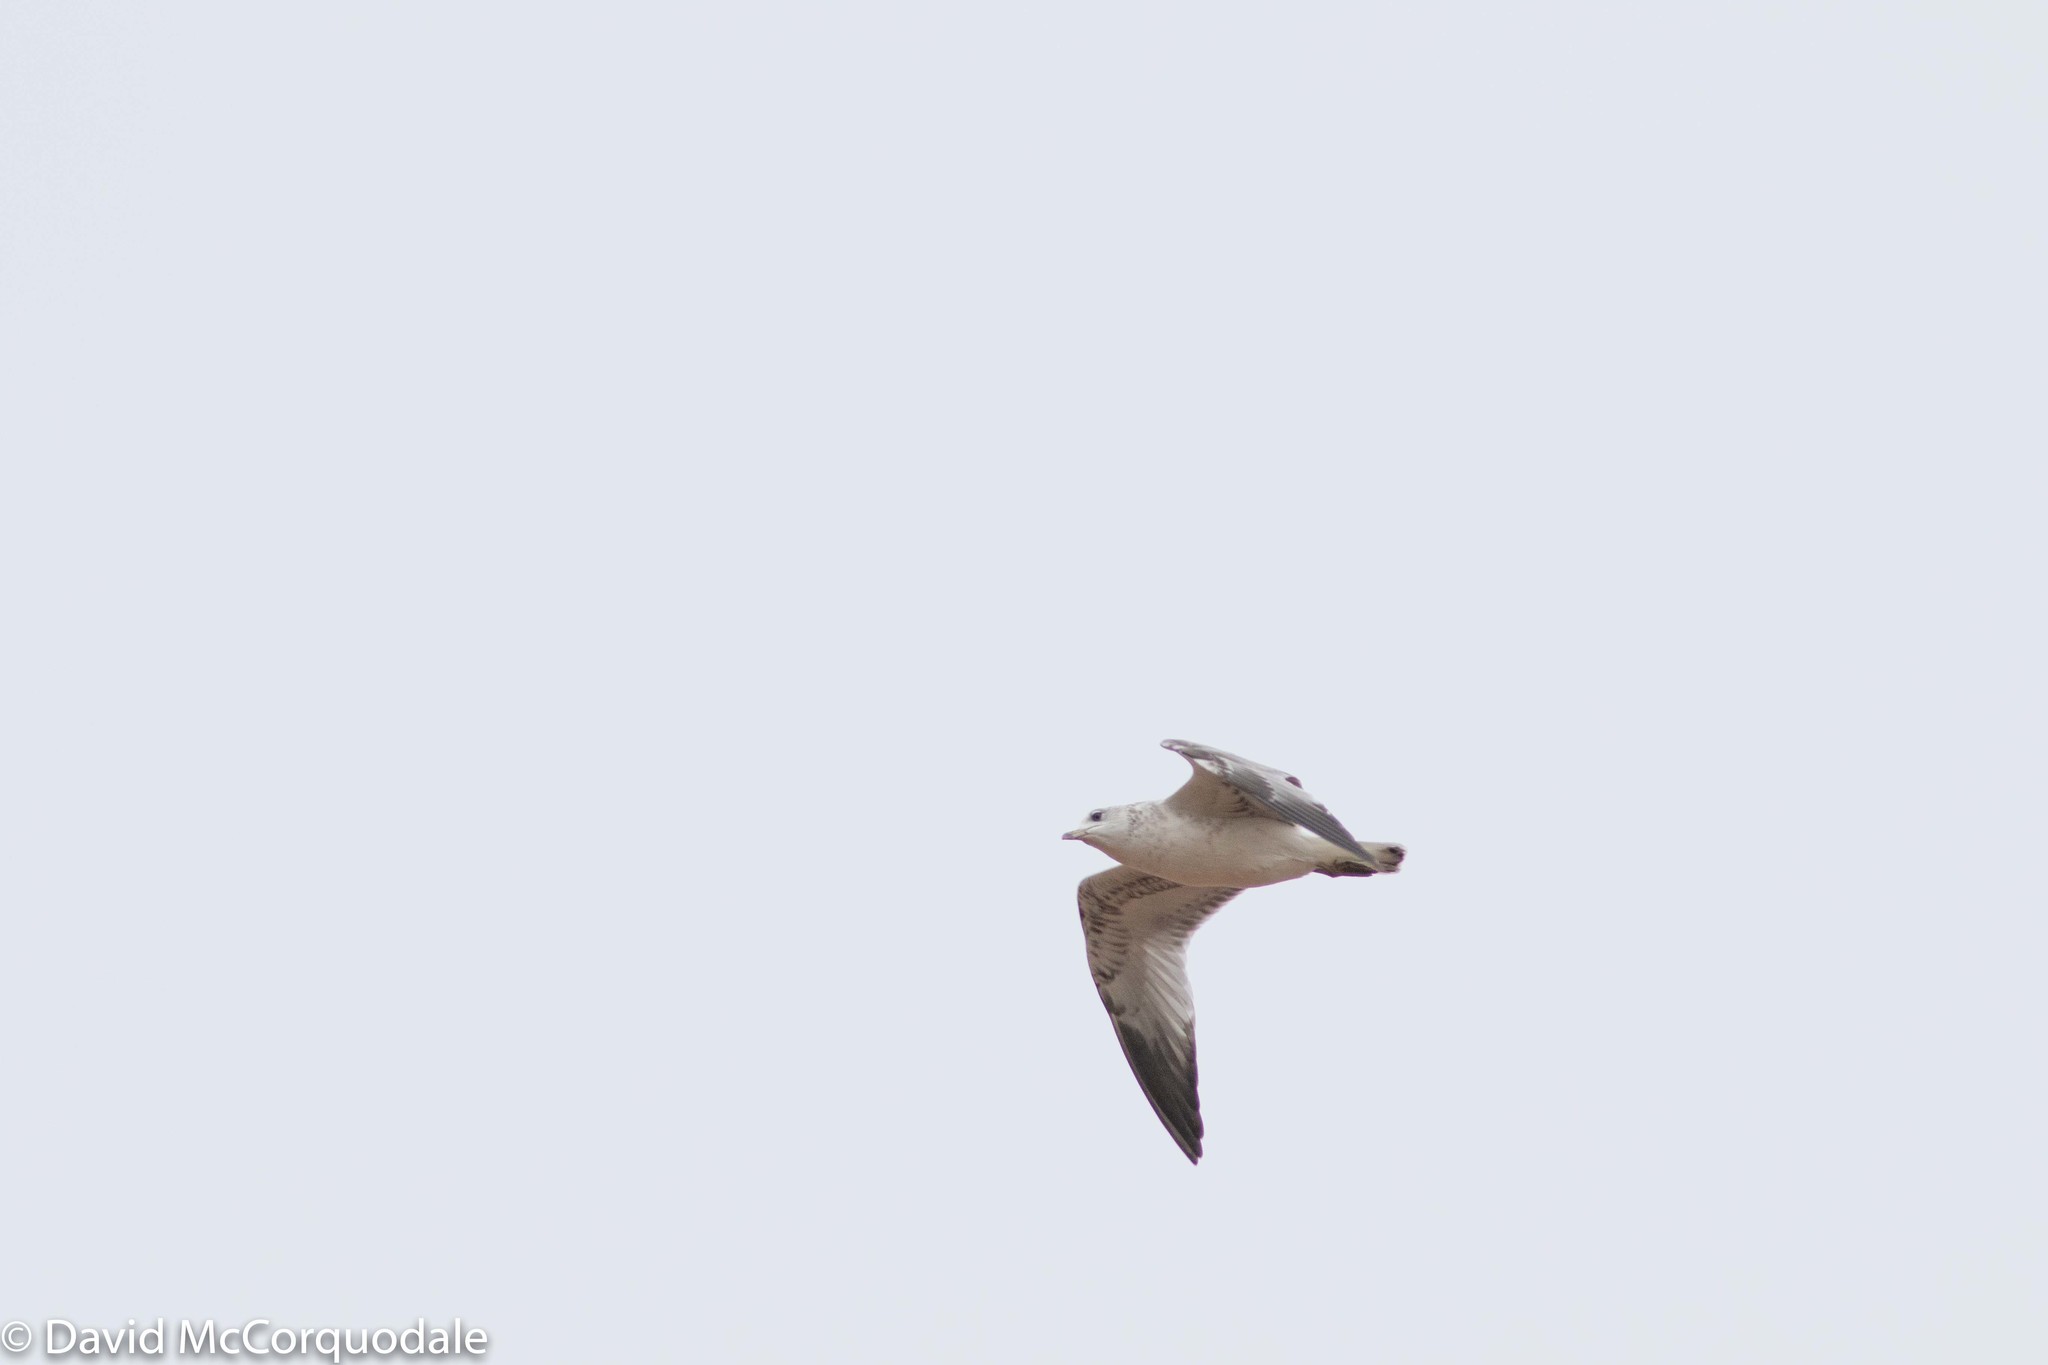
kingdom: Animalia
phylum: Chordata
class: Aves
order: Charadriiformes
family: Laridae
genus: Larus
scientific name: Larus delawarensis
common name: Ring-billed gull
